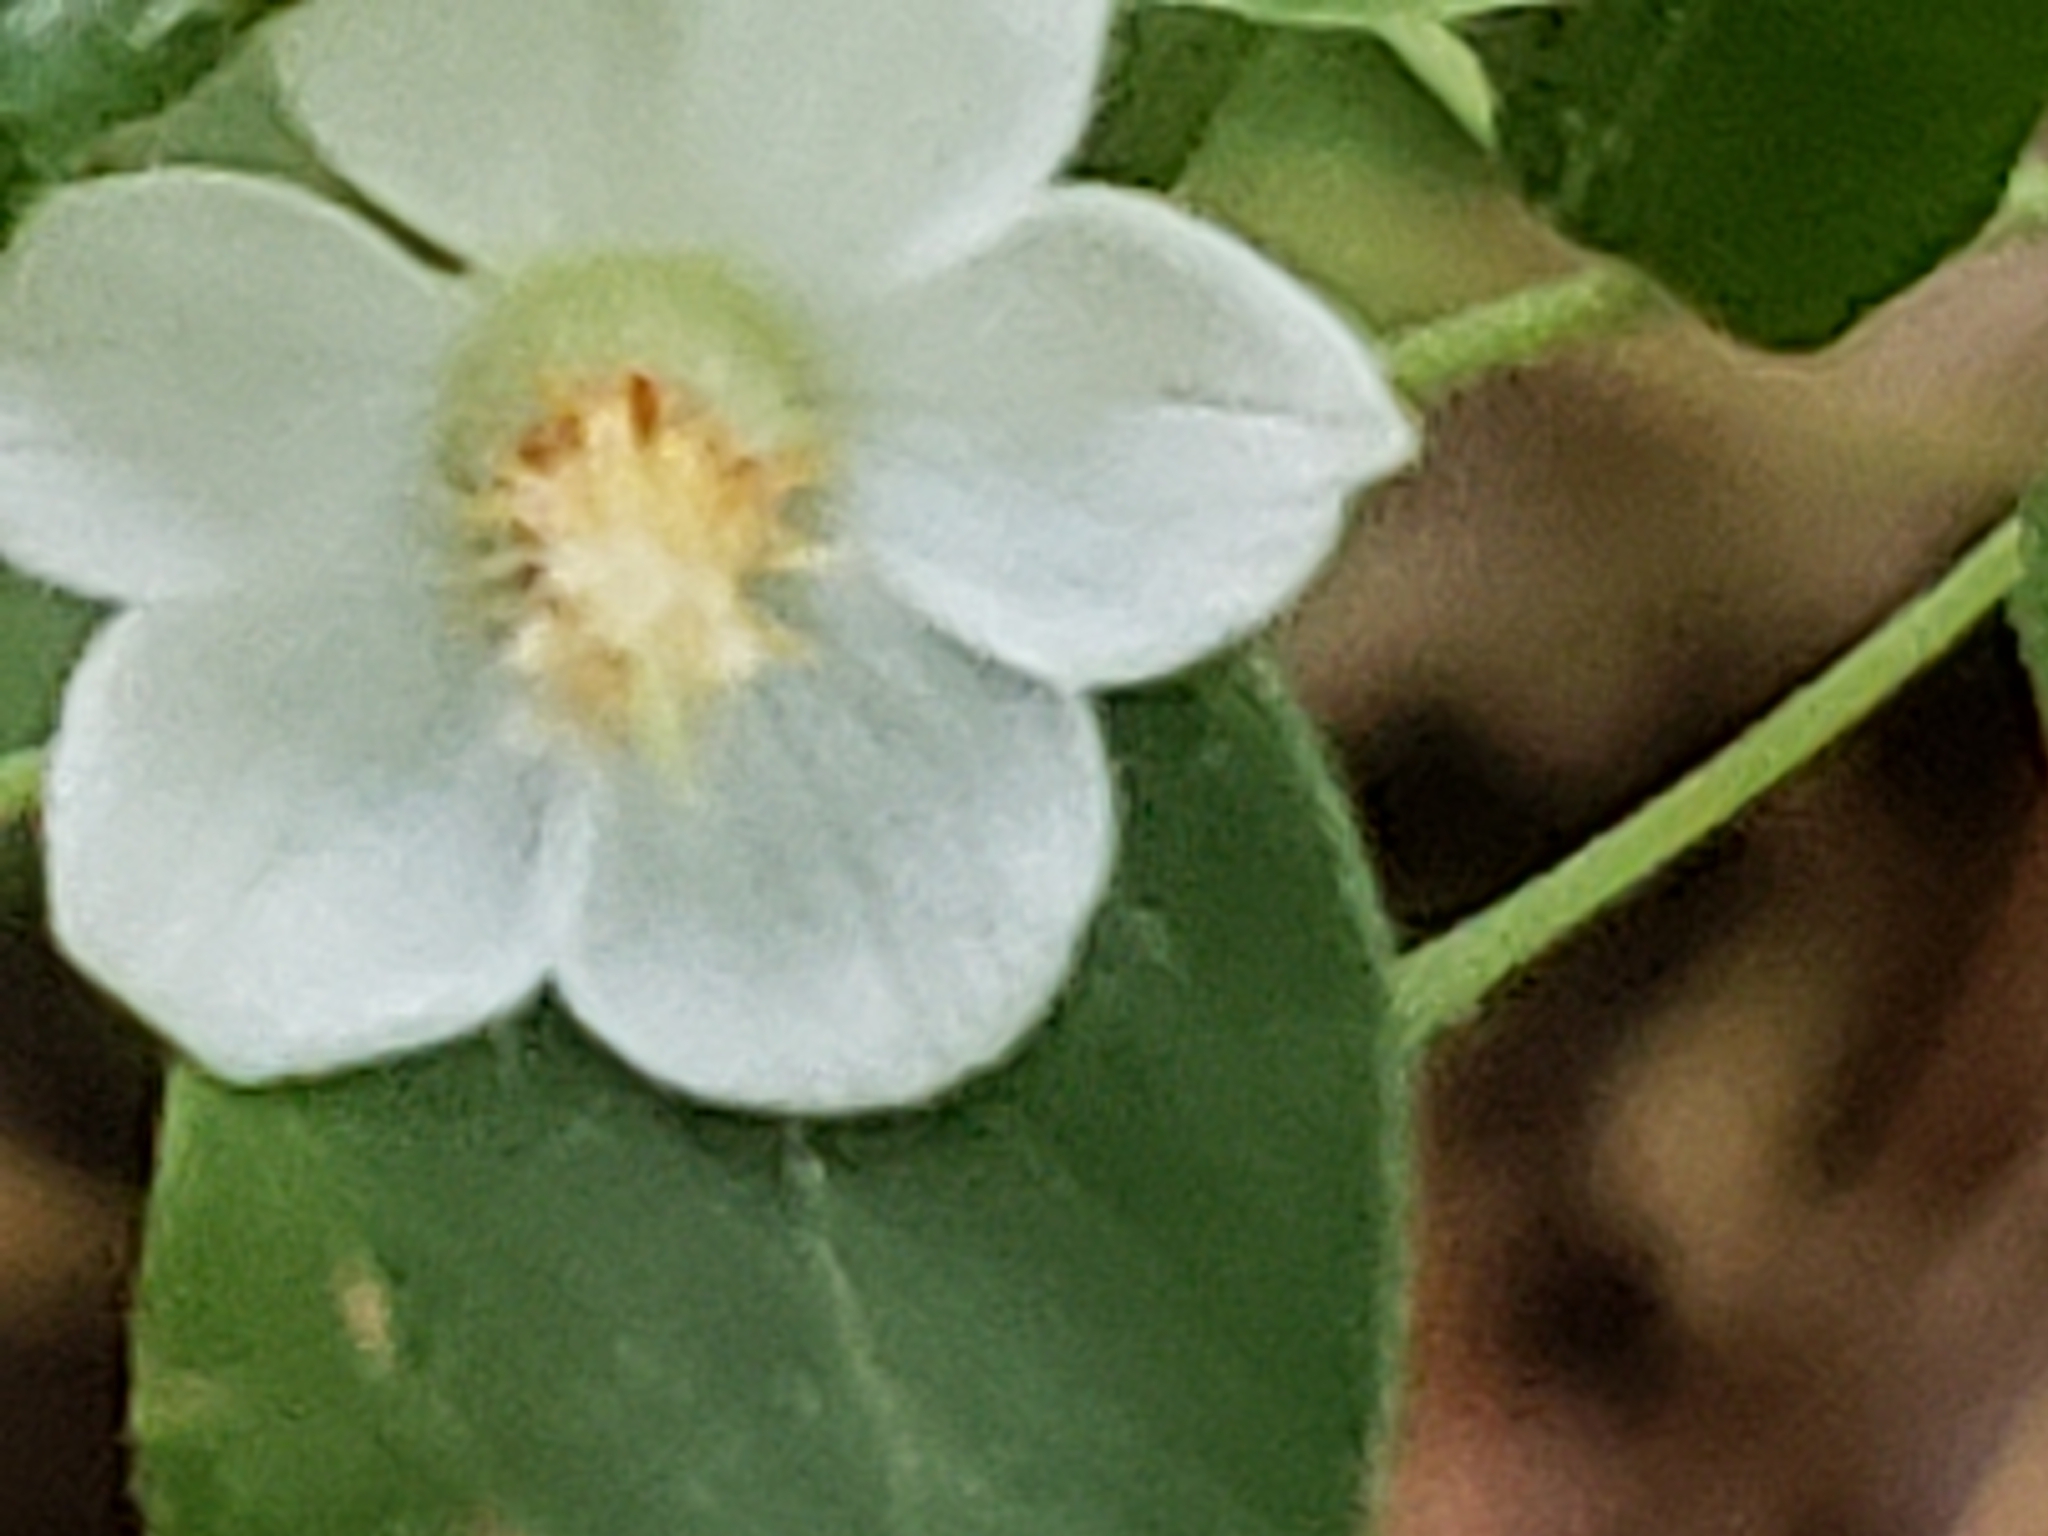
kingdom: Plantae
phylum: Tracheophyta
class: Magnoliopsida
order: Ericales
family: Ericaceae
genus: Vaccinium
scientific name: Vaccinium stamineum
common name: Deerberry
